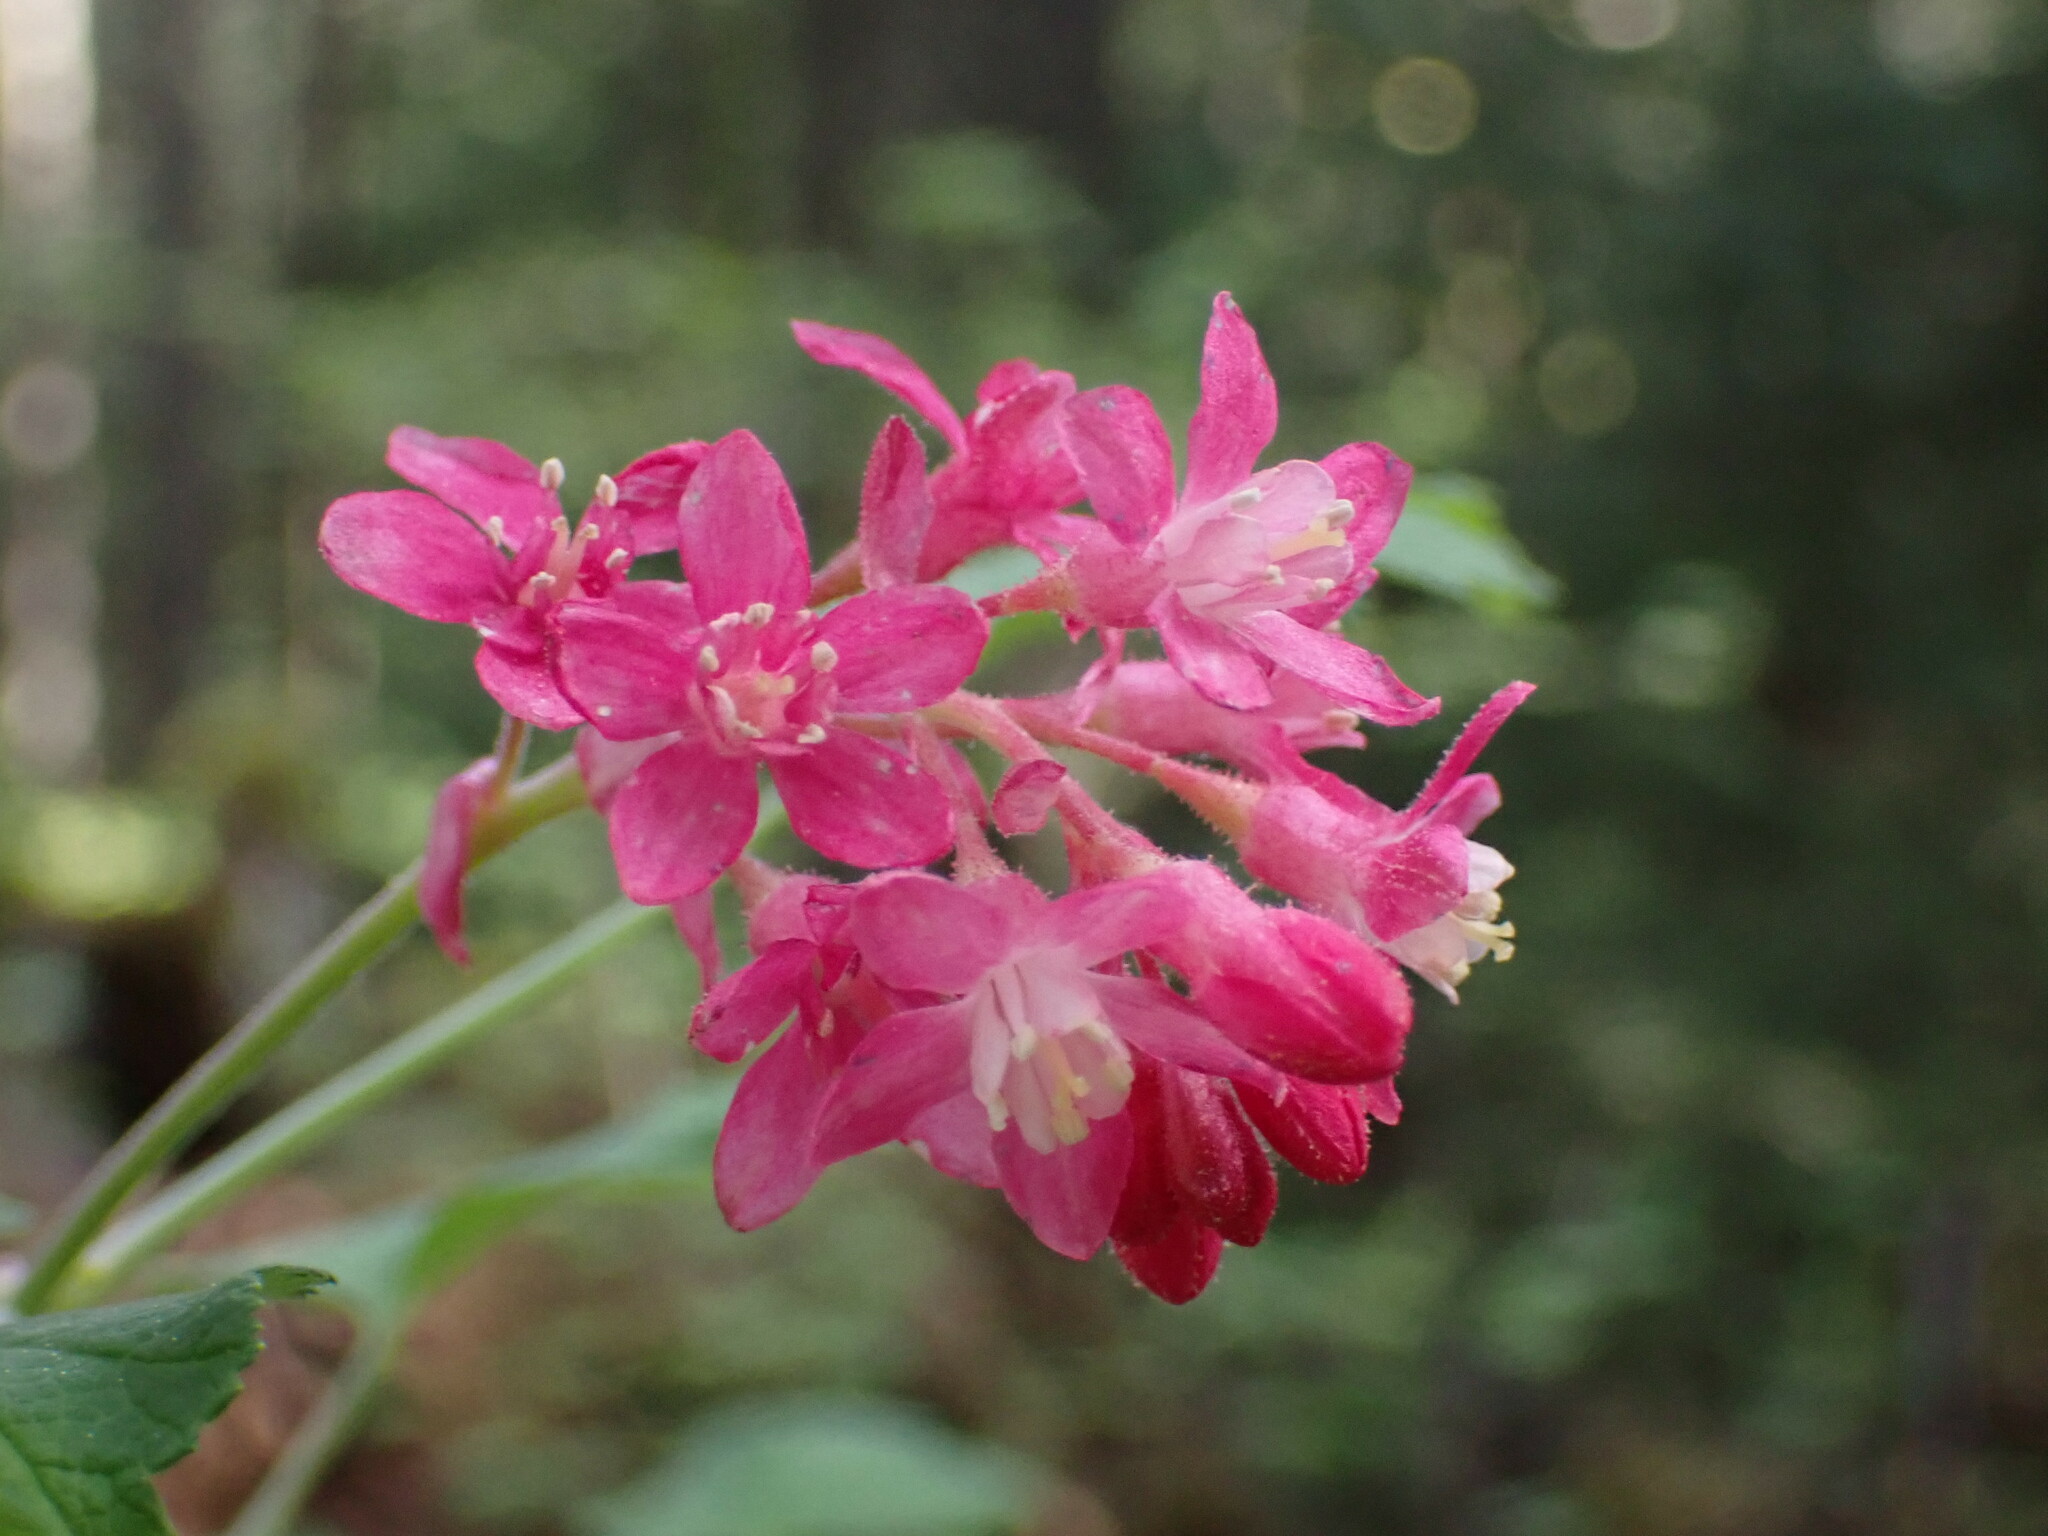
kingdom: Plantae
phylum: Tracheophyta
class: Magnoliopsida
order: Saxifragales
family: Grossulariaceae
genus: Ribes
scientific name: Ribes sanguineum
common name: Flowering currant
